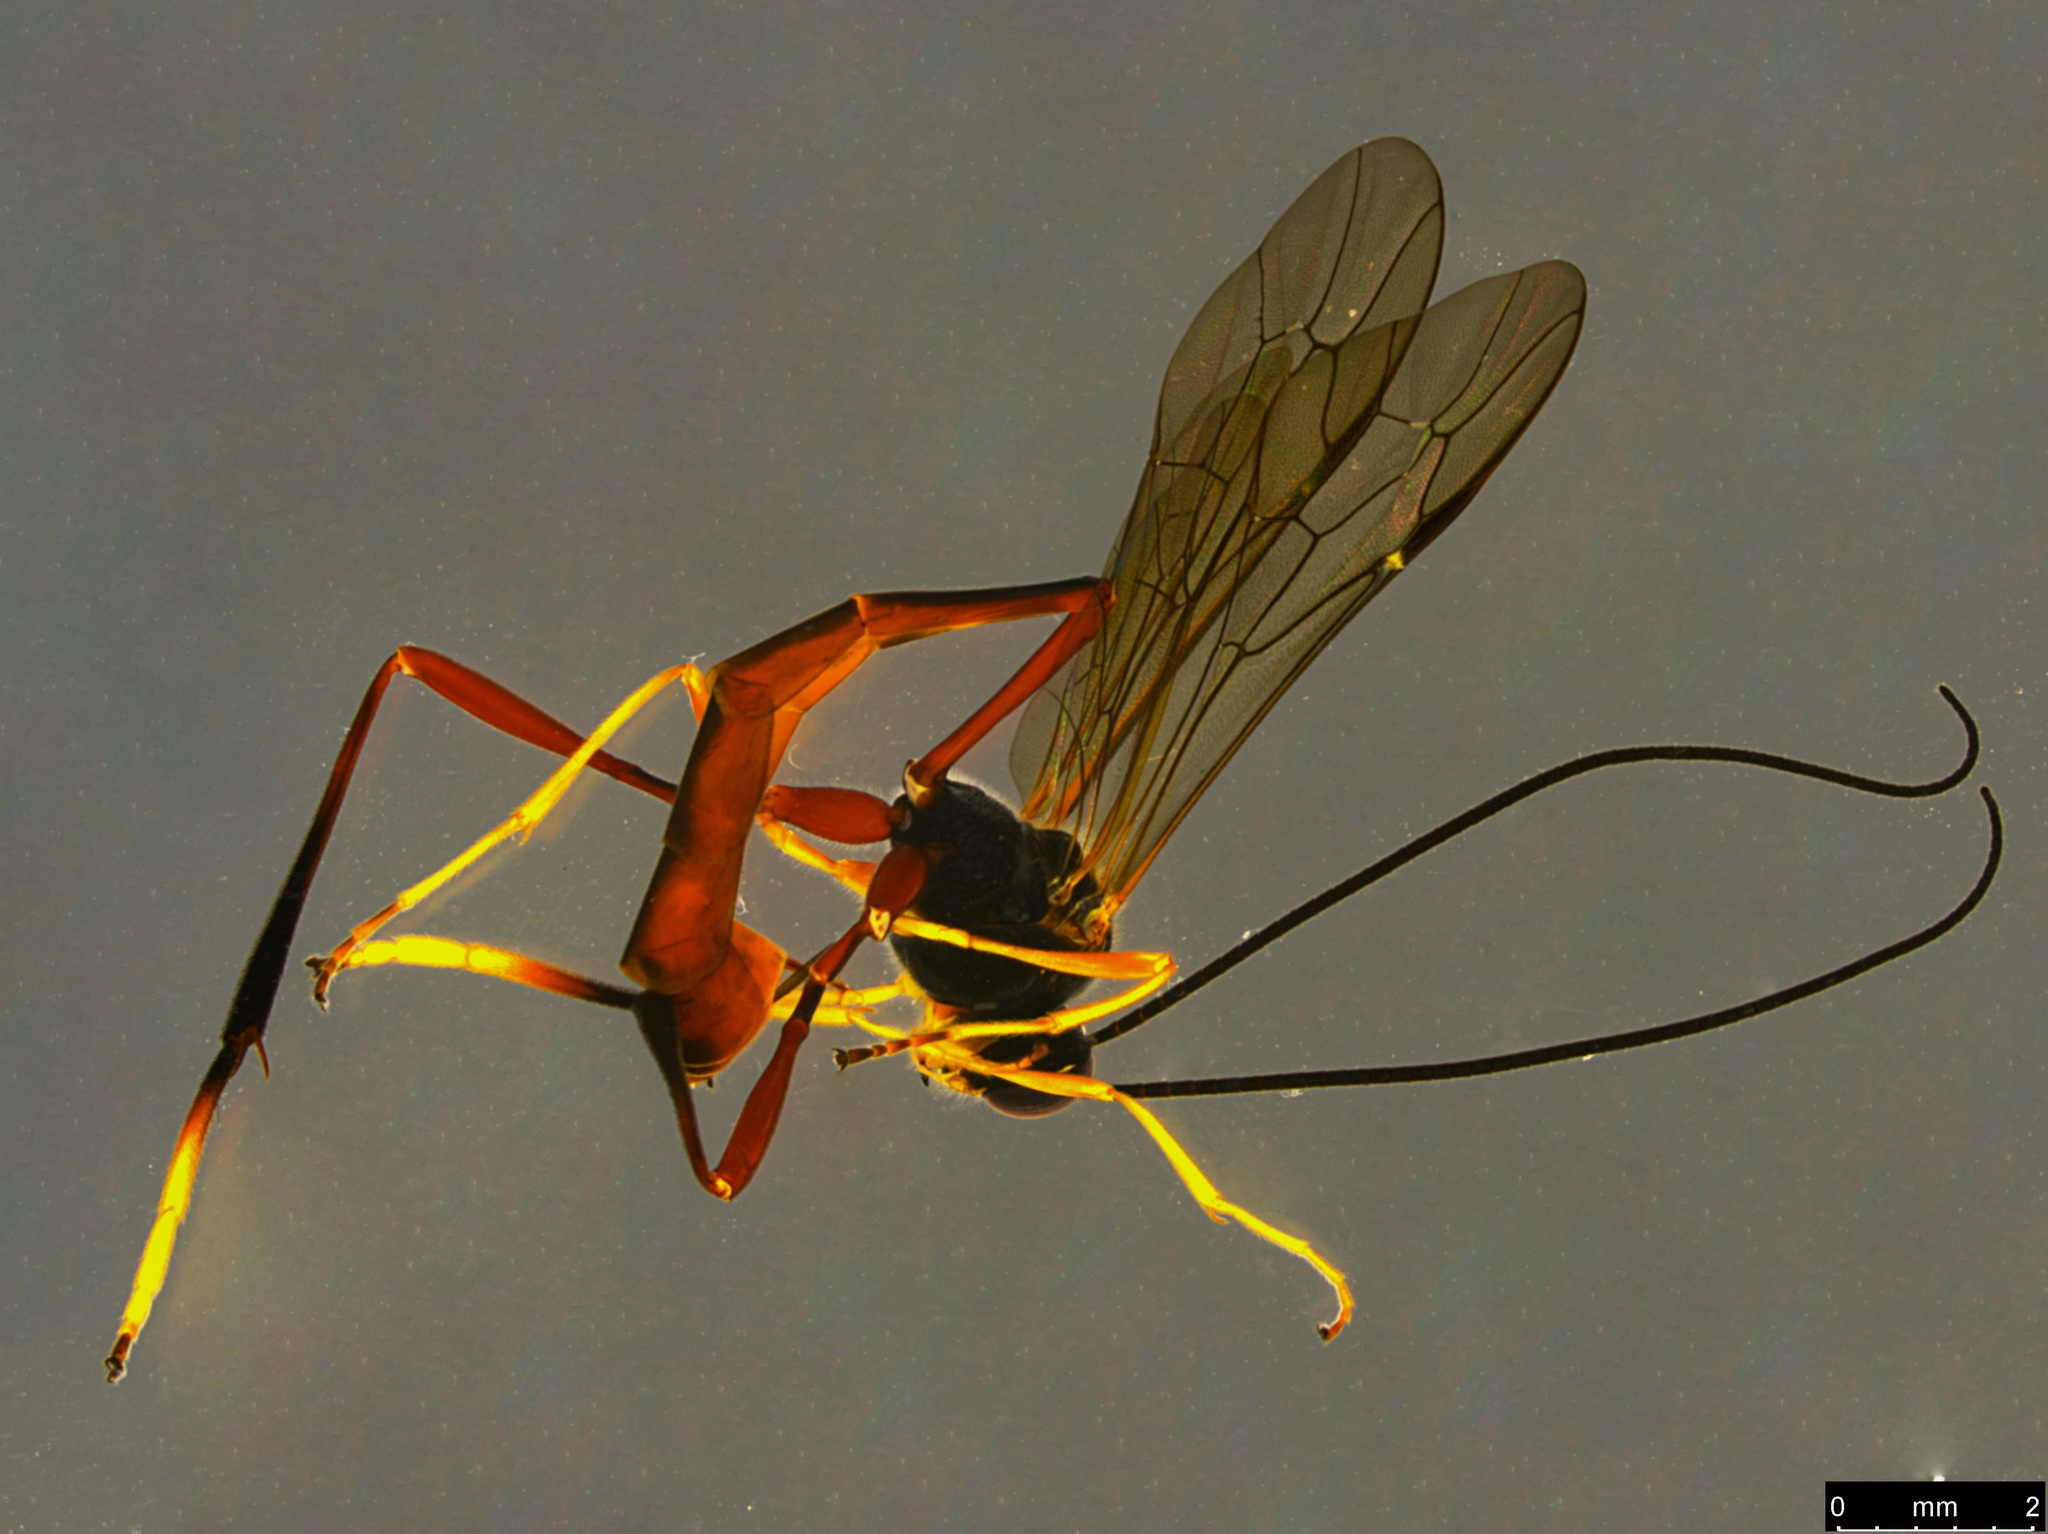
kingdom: Animalia
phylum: Arthropoda
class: Insecta
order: Hymenoptera
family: Ichneumonidae
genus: Heteropelma
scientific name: Heteropelma scaposum
